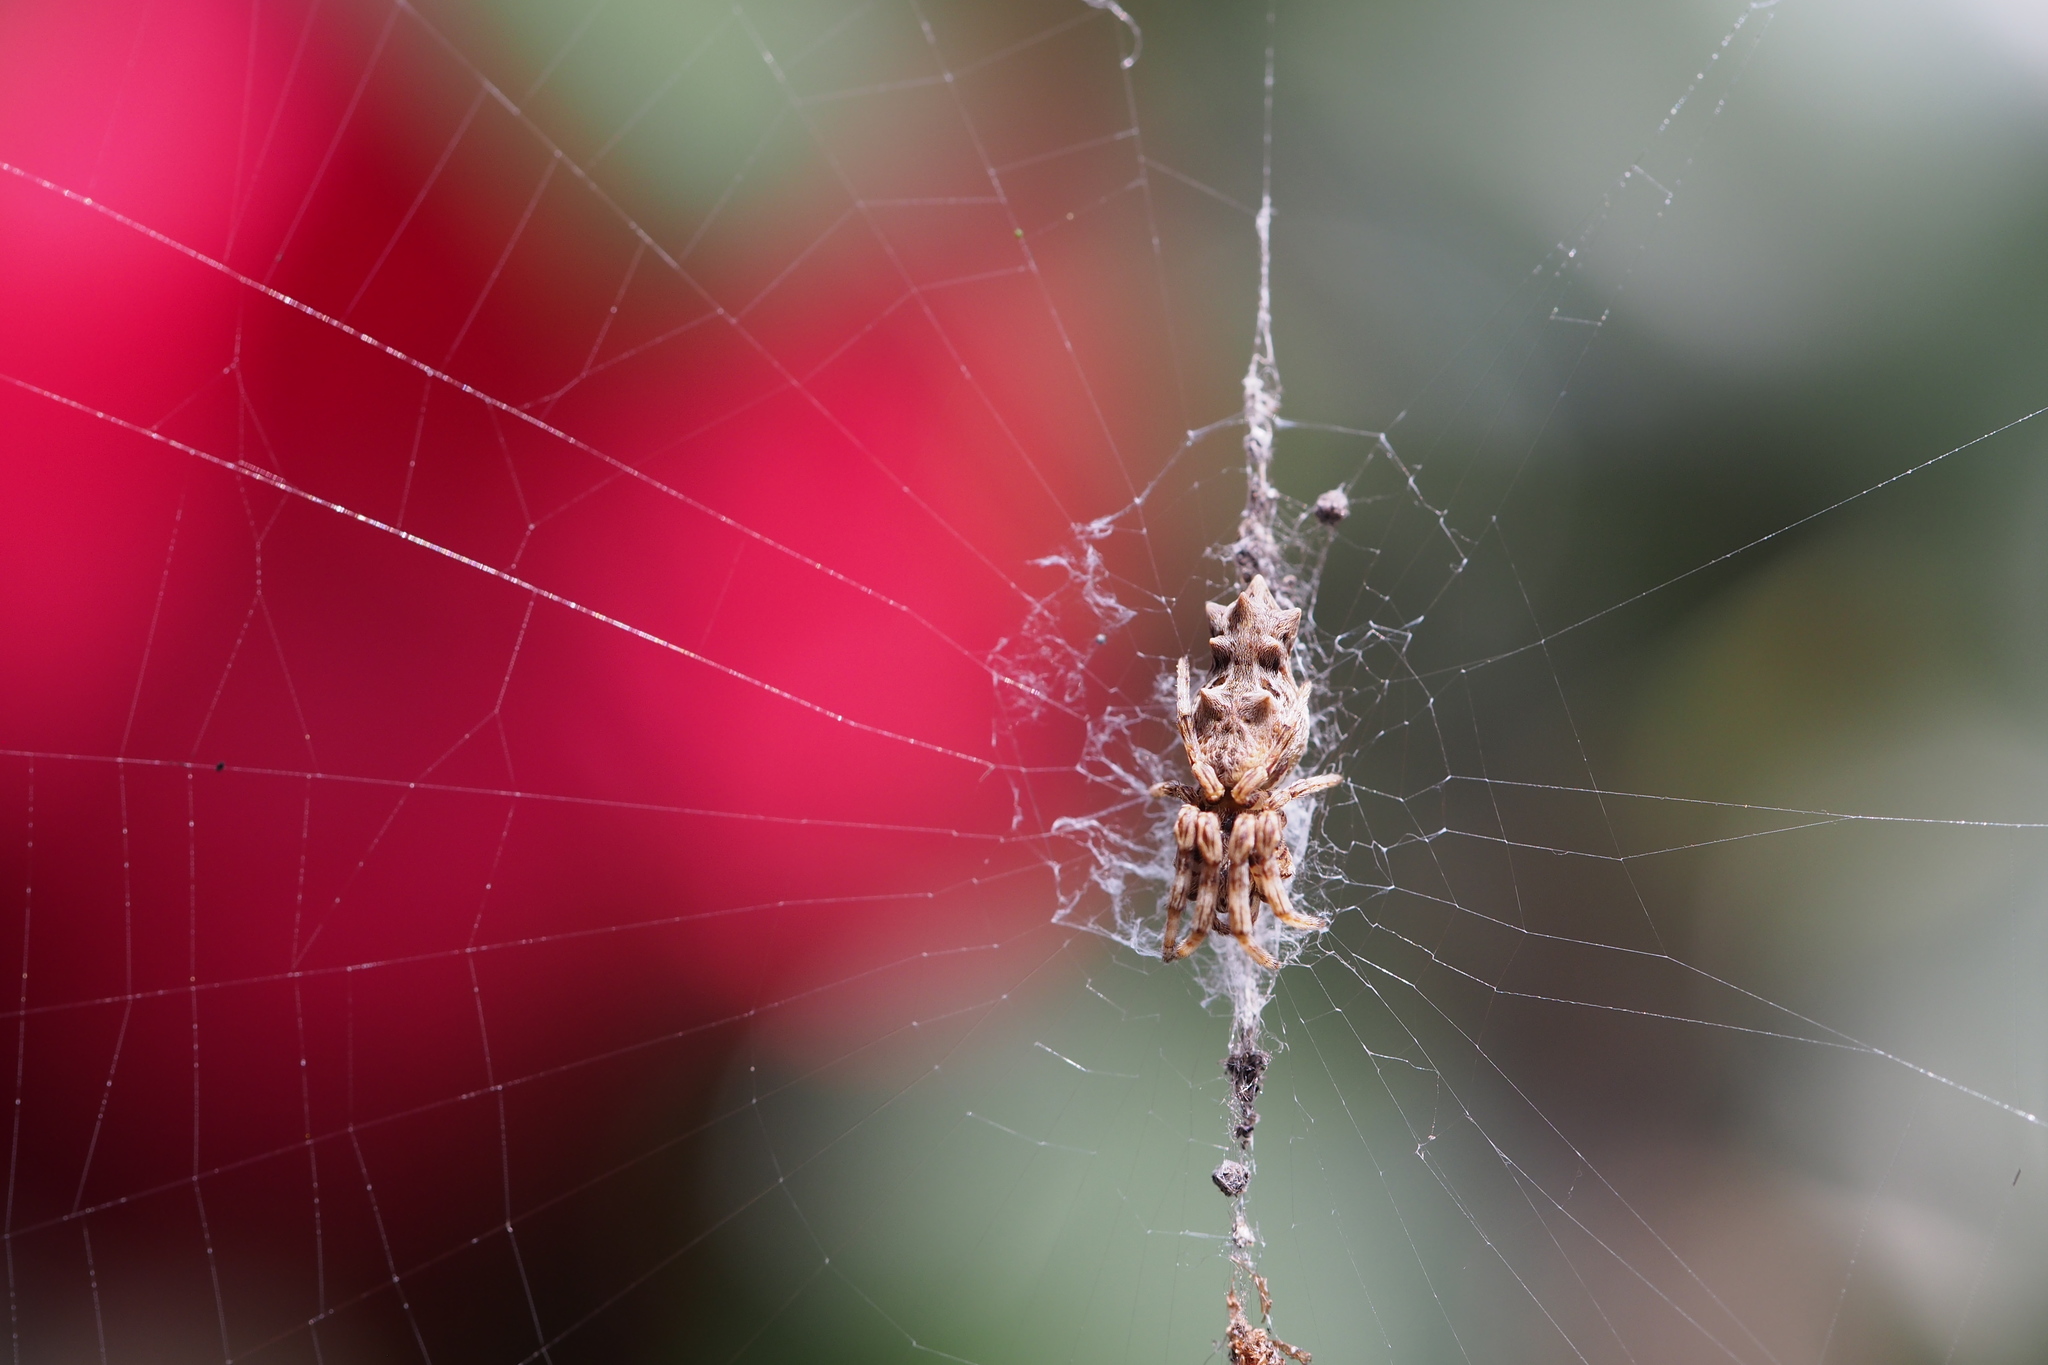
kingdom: Animalia
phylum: Arthropoda
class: Arachnida
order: Araneae
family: Araneidae
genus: Cyclosa
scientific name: Cyclosa octotuberculata
